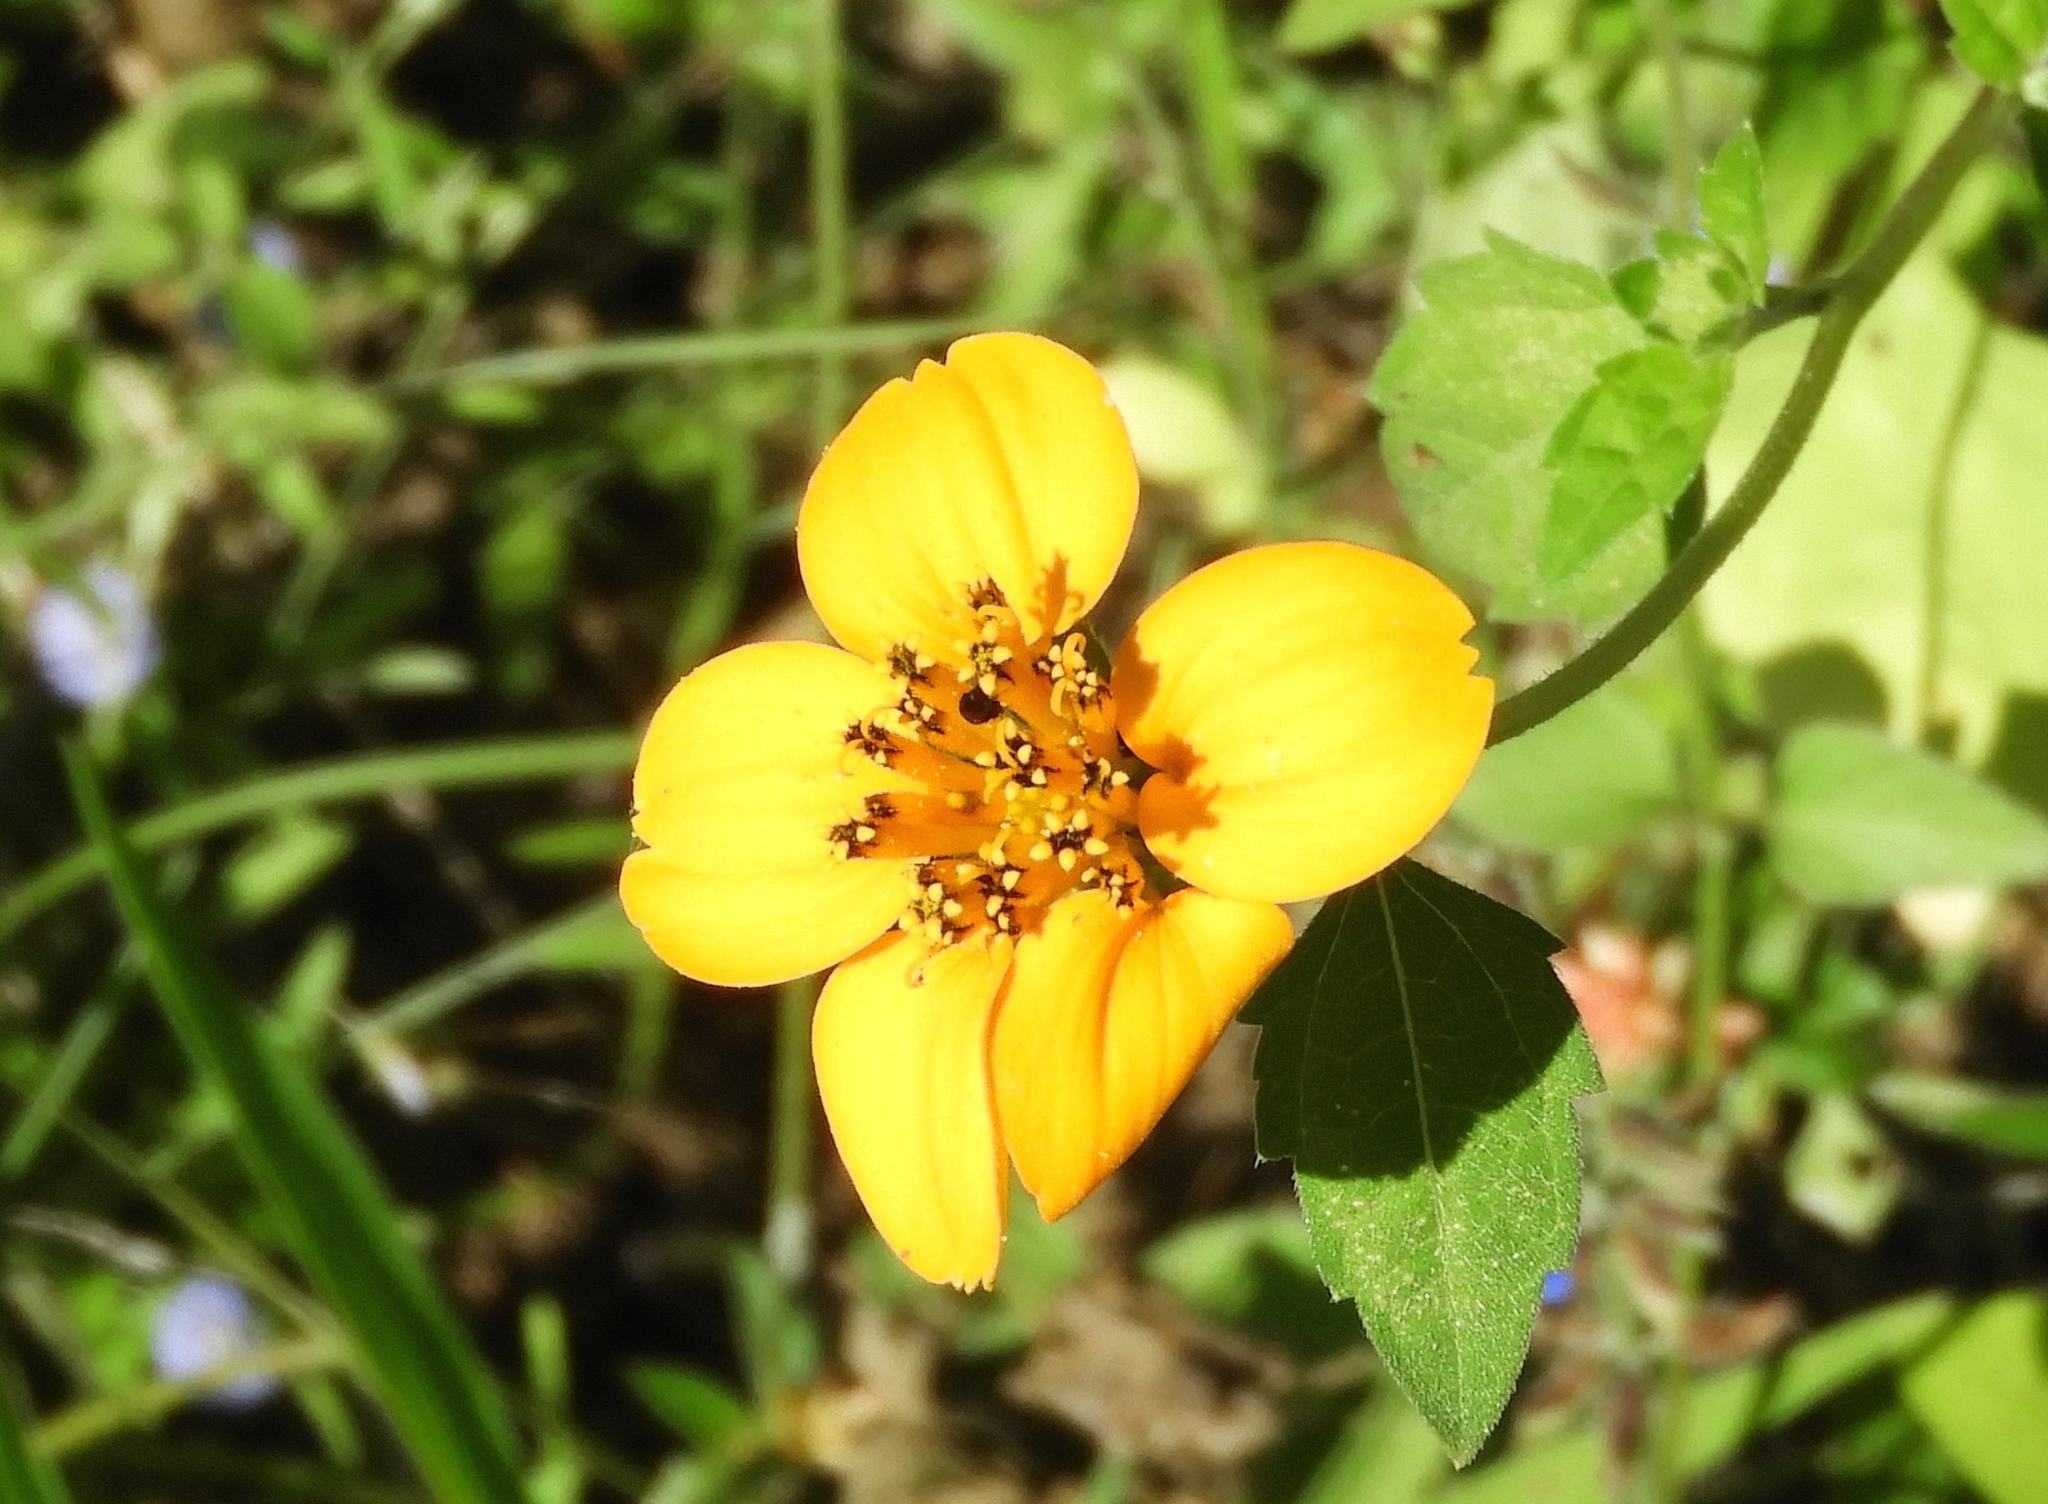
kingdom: Plantae
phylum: Tracheophyta
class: Magnoliopsida
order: Asterales
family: Asteraceae
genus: Sclerocarpus
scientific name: Sclerocarpus divaricatus
